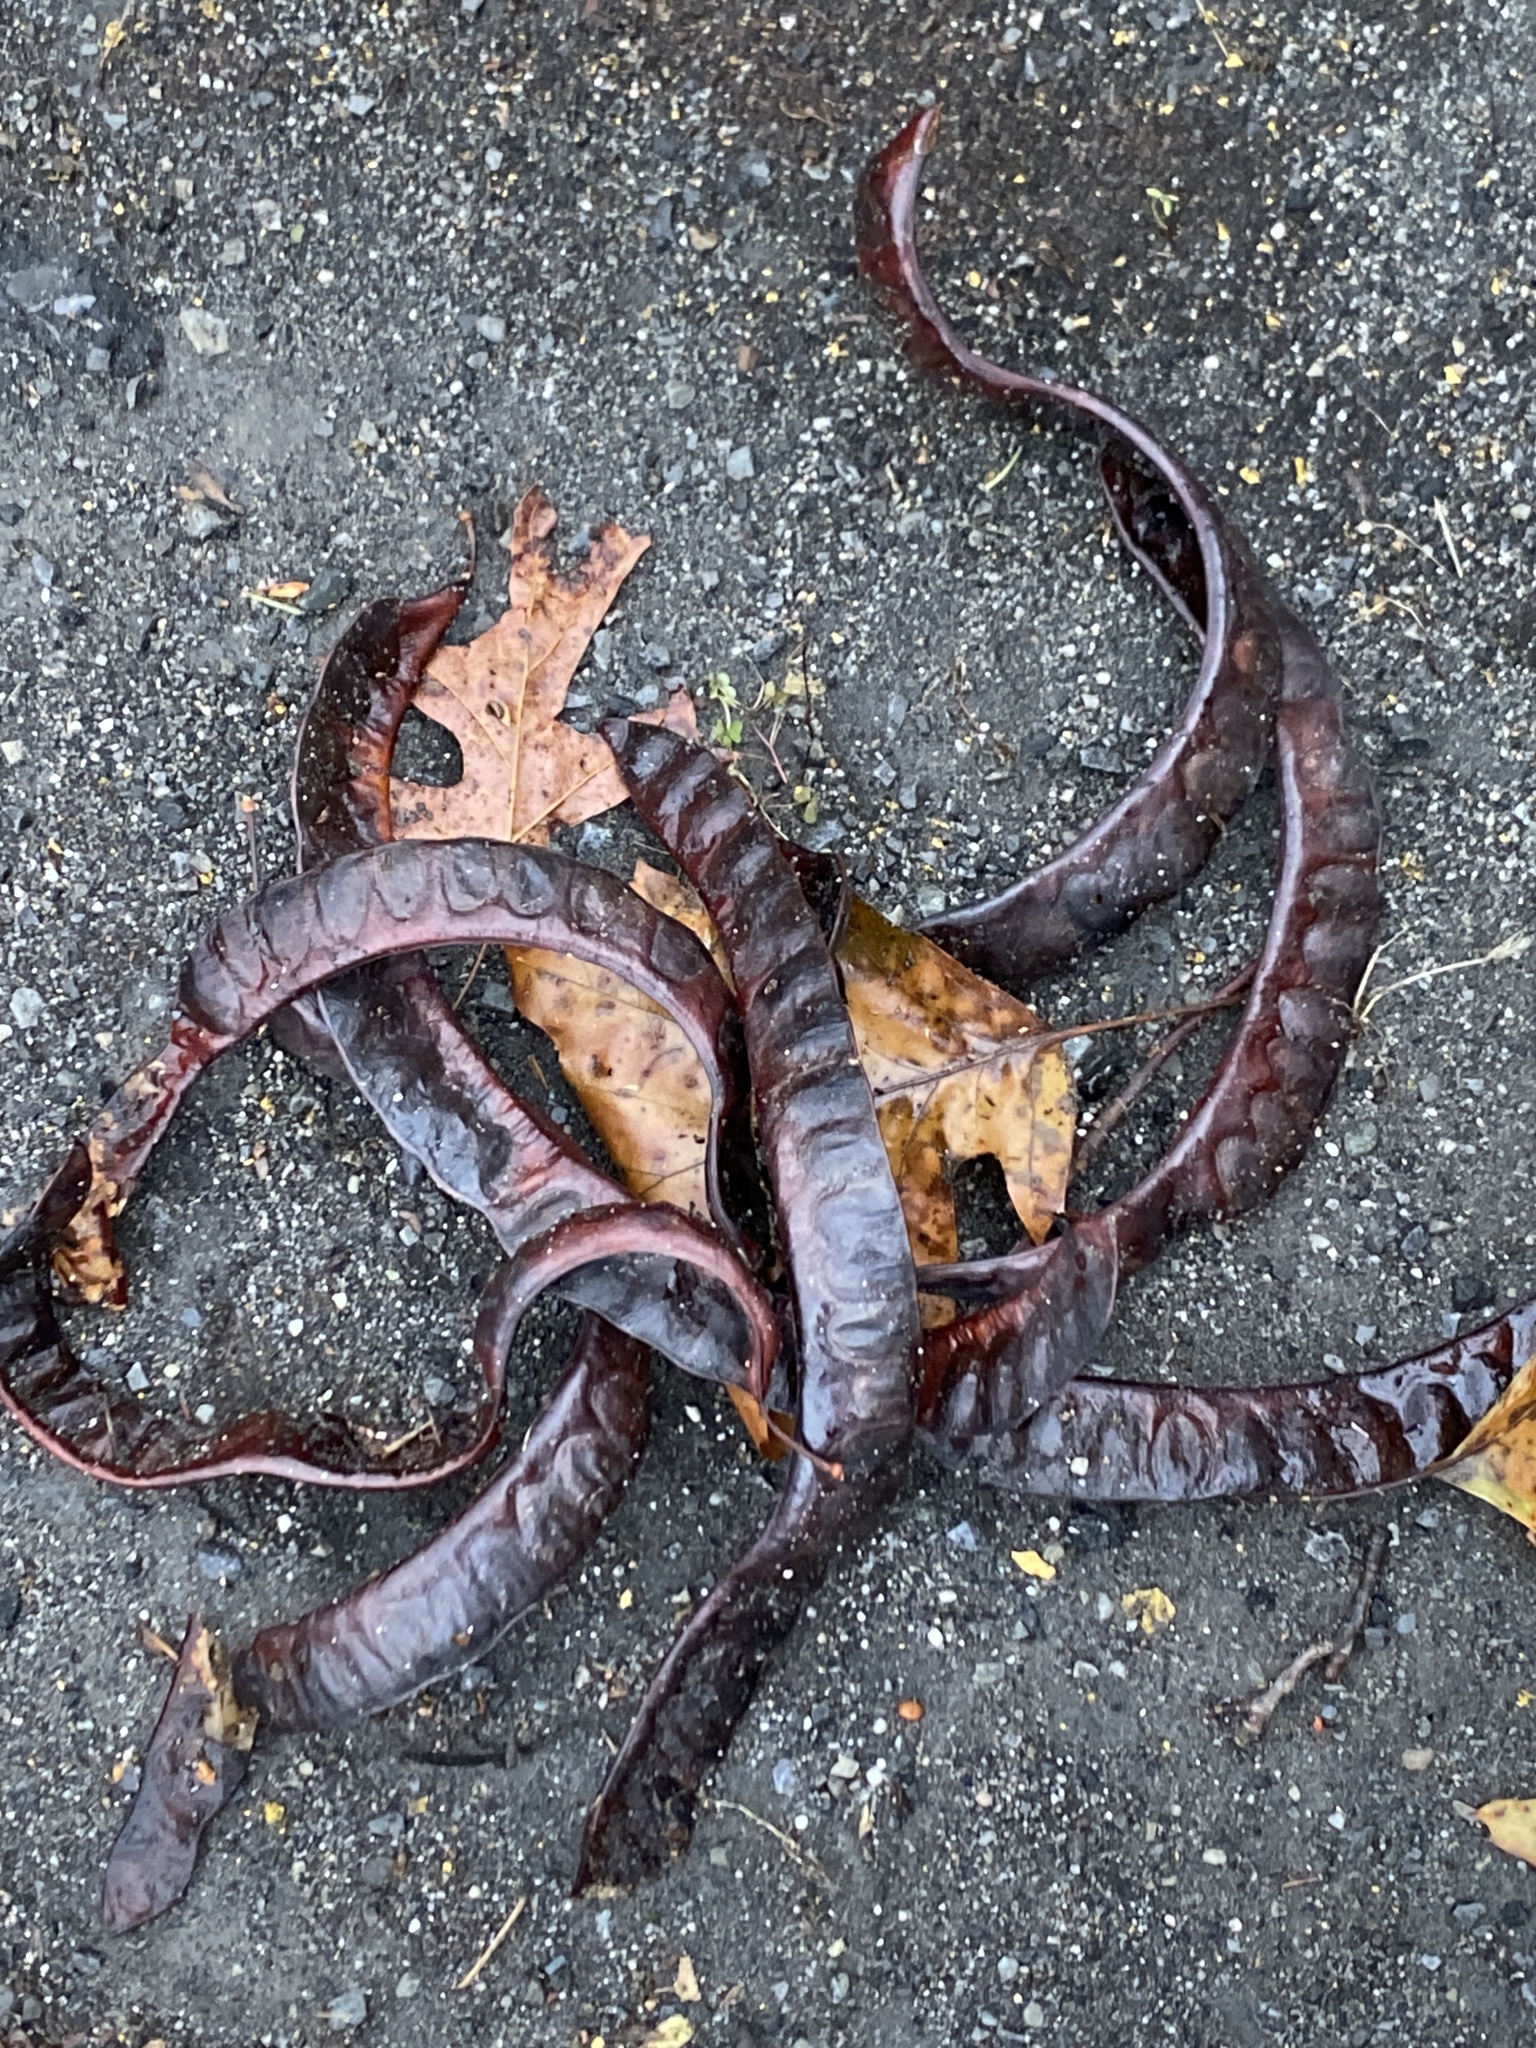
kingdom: Plantae
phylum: Tracheophyta
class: Magnoliopsida
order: Fabales
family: Fabaceae
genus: Gleditsia
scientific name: Gleditsia triacanthos
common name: Common honeylocust
